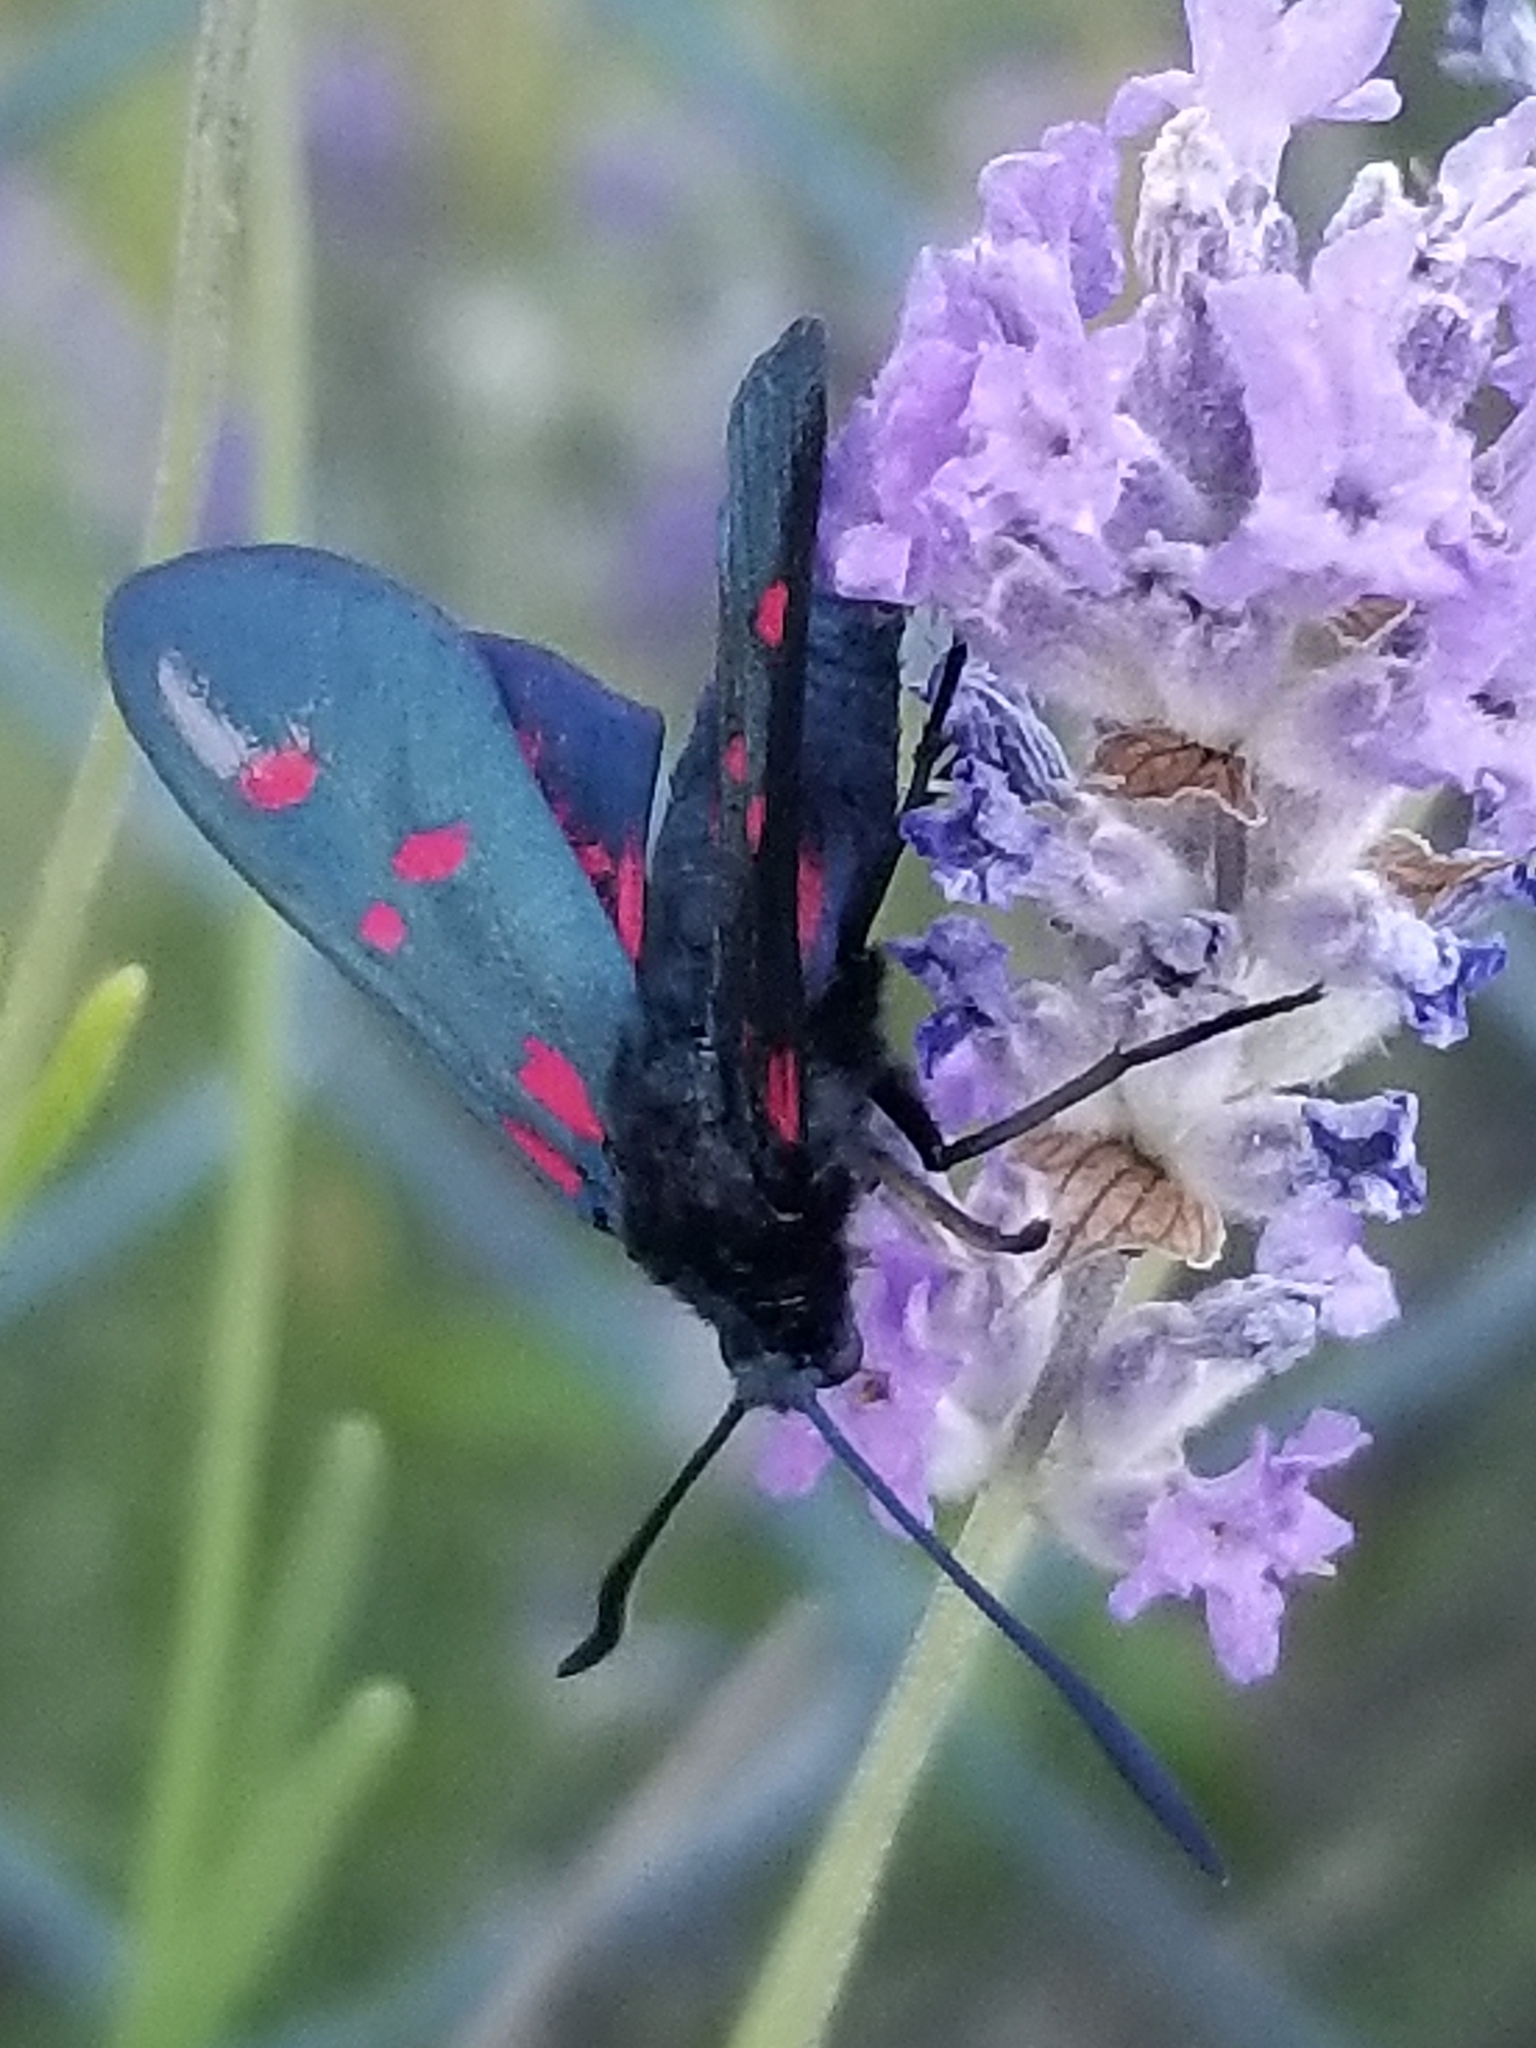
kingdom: Animalia
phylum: Arthropoda
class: Insecta
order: Lepidoptera
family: Zygaenidae
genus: Zygaena
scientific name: Zygaena filipendulae
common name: Six-spot burnet
